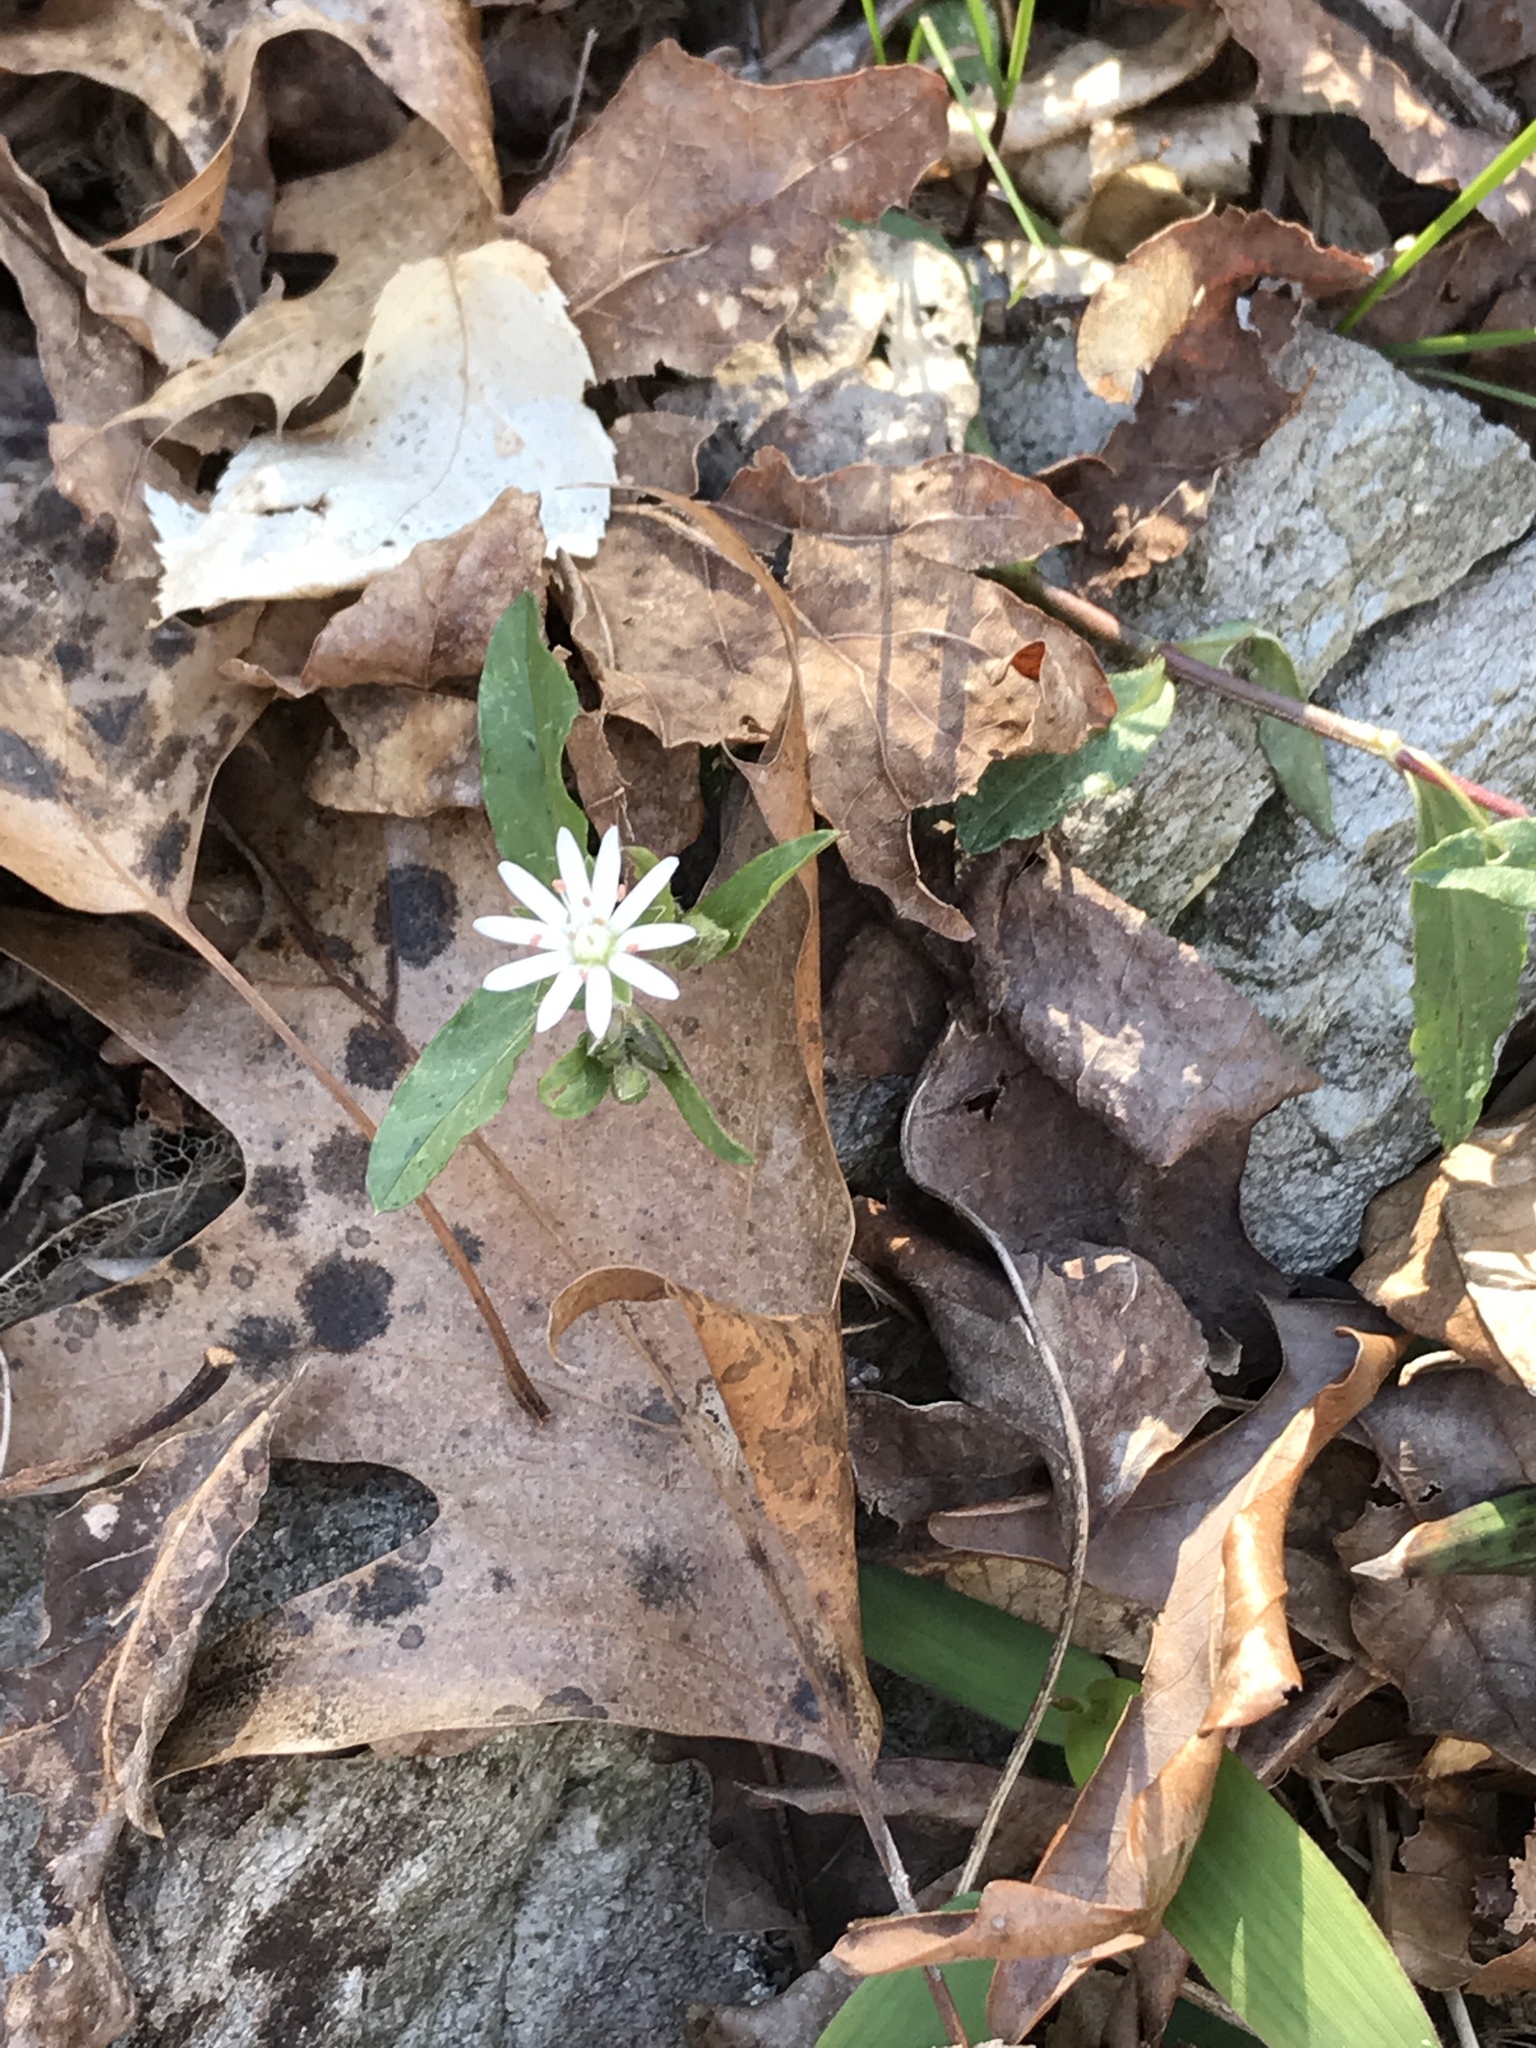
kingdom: Plantae
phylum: Tracheophyta
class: Magnoliopsida
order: Caryophyllales
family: Caryophyllaceae
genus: Stellaria
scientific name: Stellaria pubera
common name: Star chickweed
